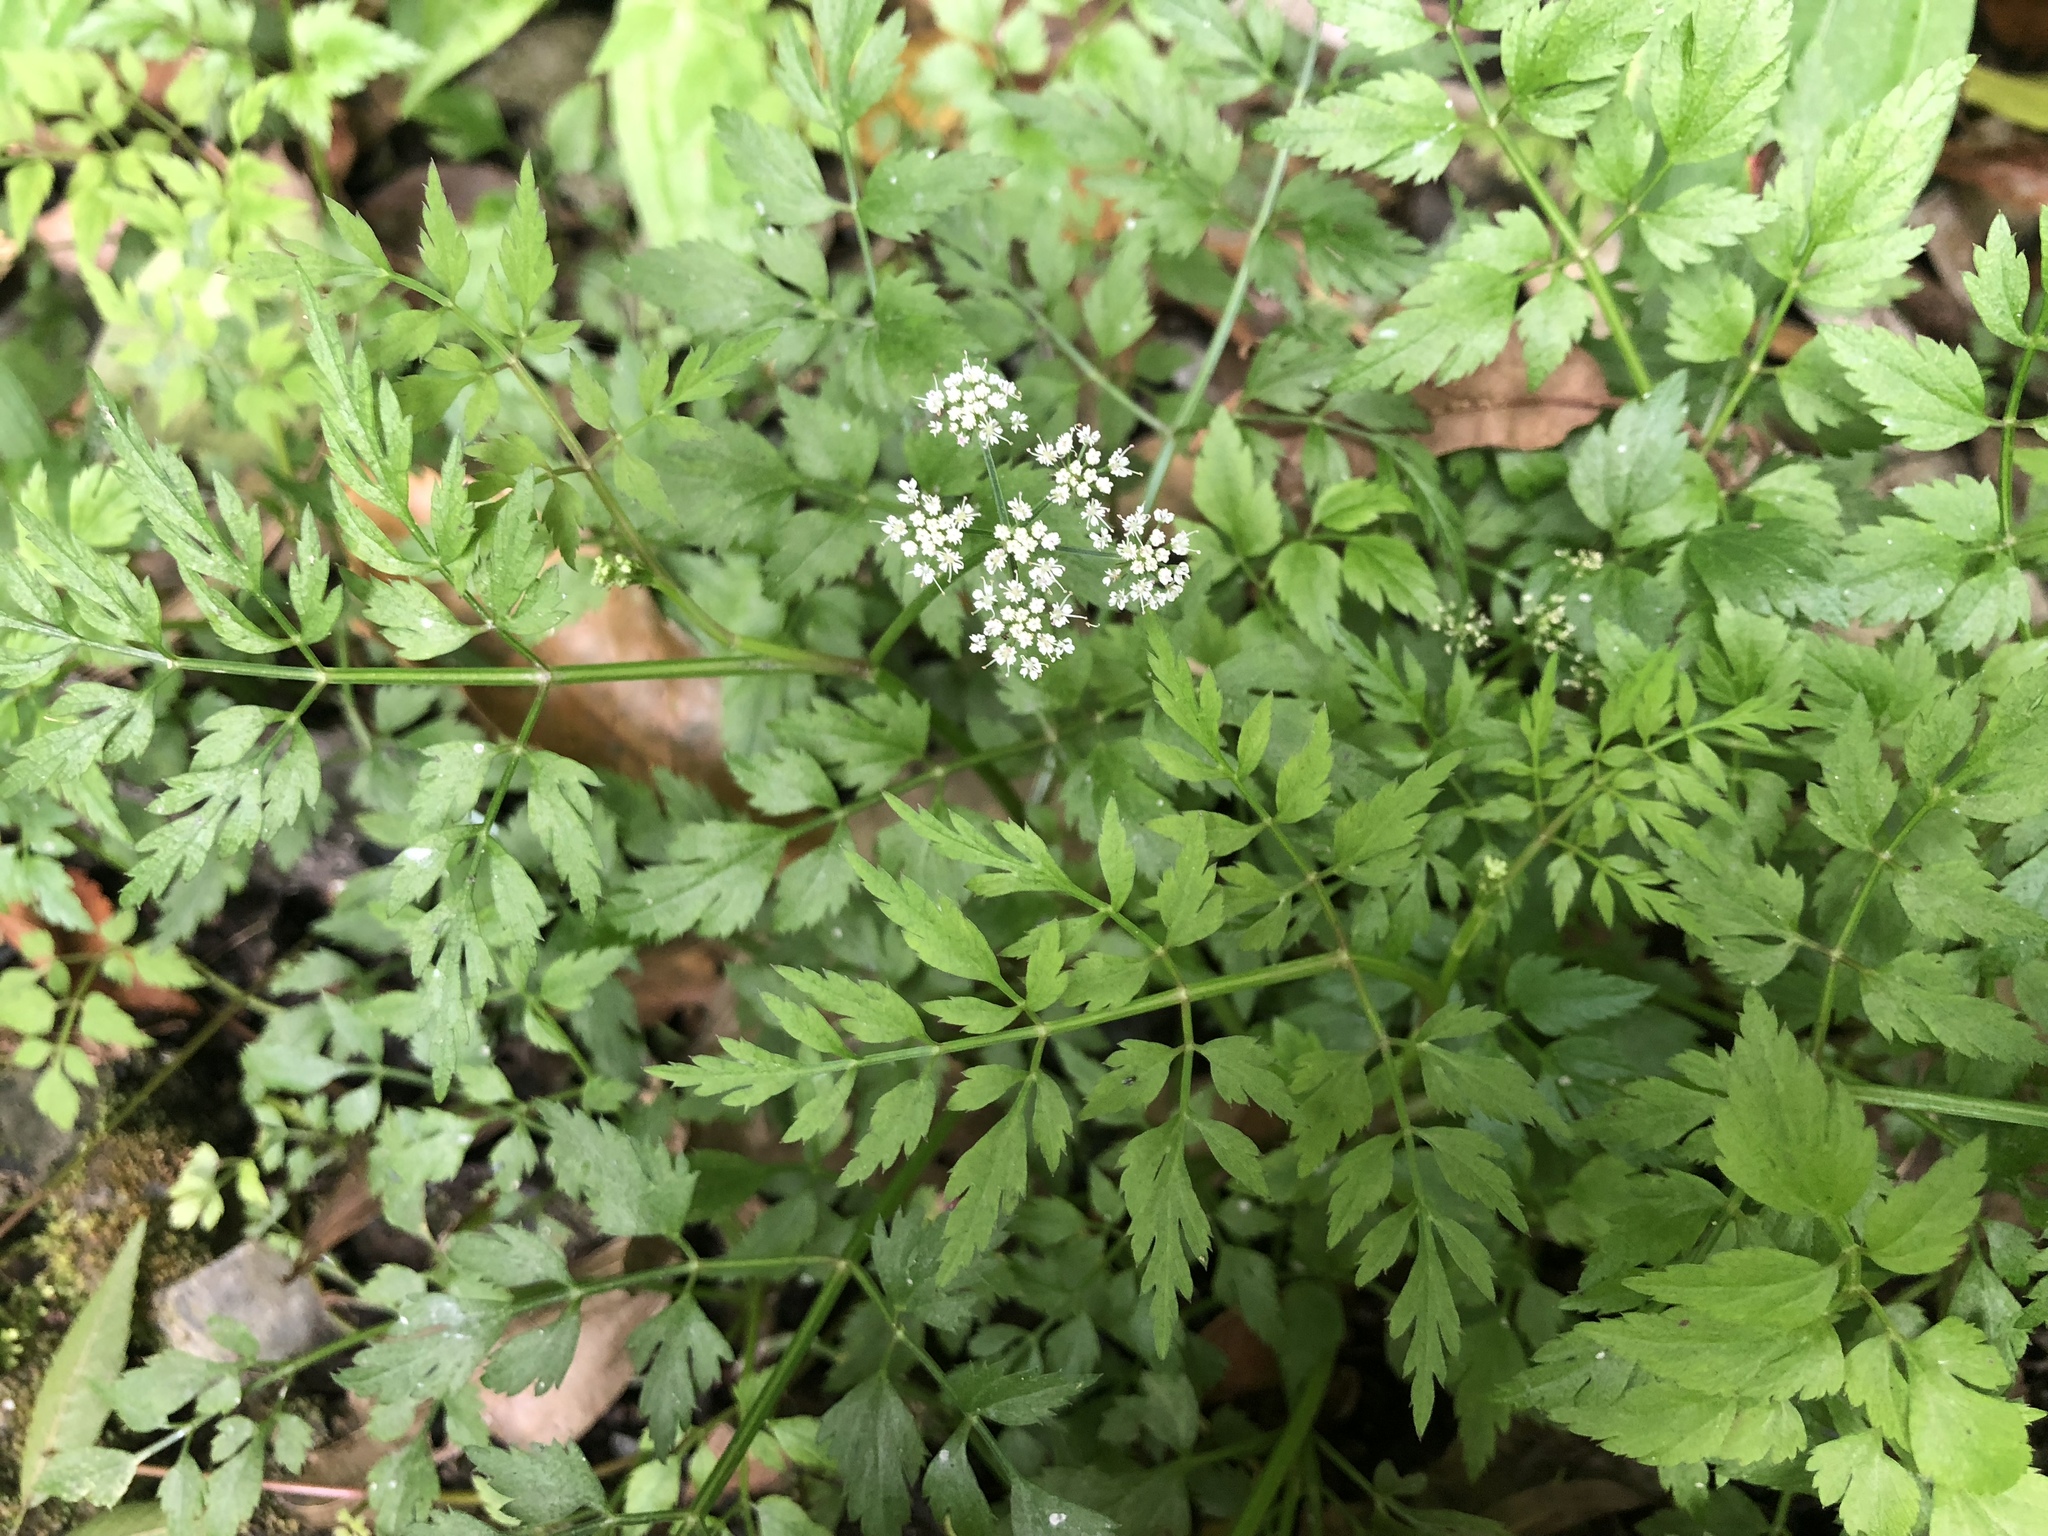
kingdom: Plantae
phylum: Tracheophyta
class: Magnoliopsida
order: Apiales
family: Apiaceae
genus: Oenanthe
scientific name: Oenanthe javanica
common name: Java water-dropwort
